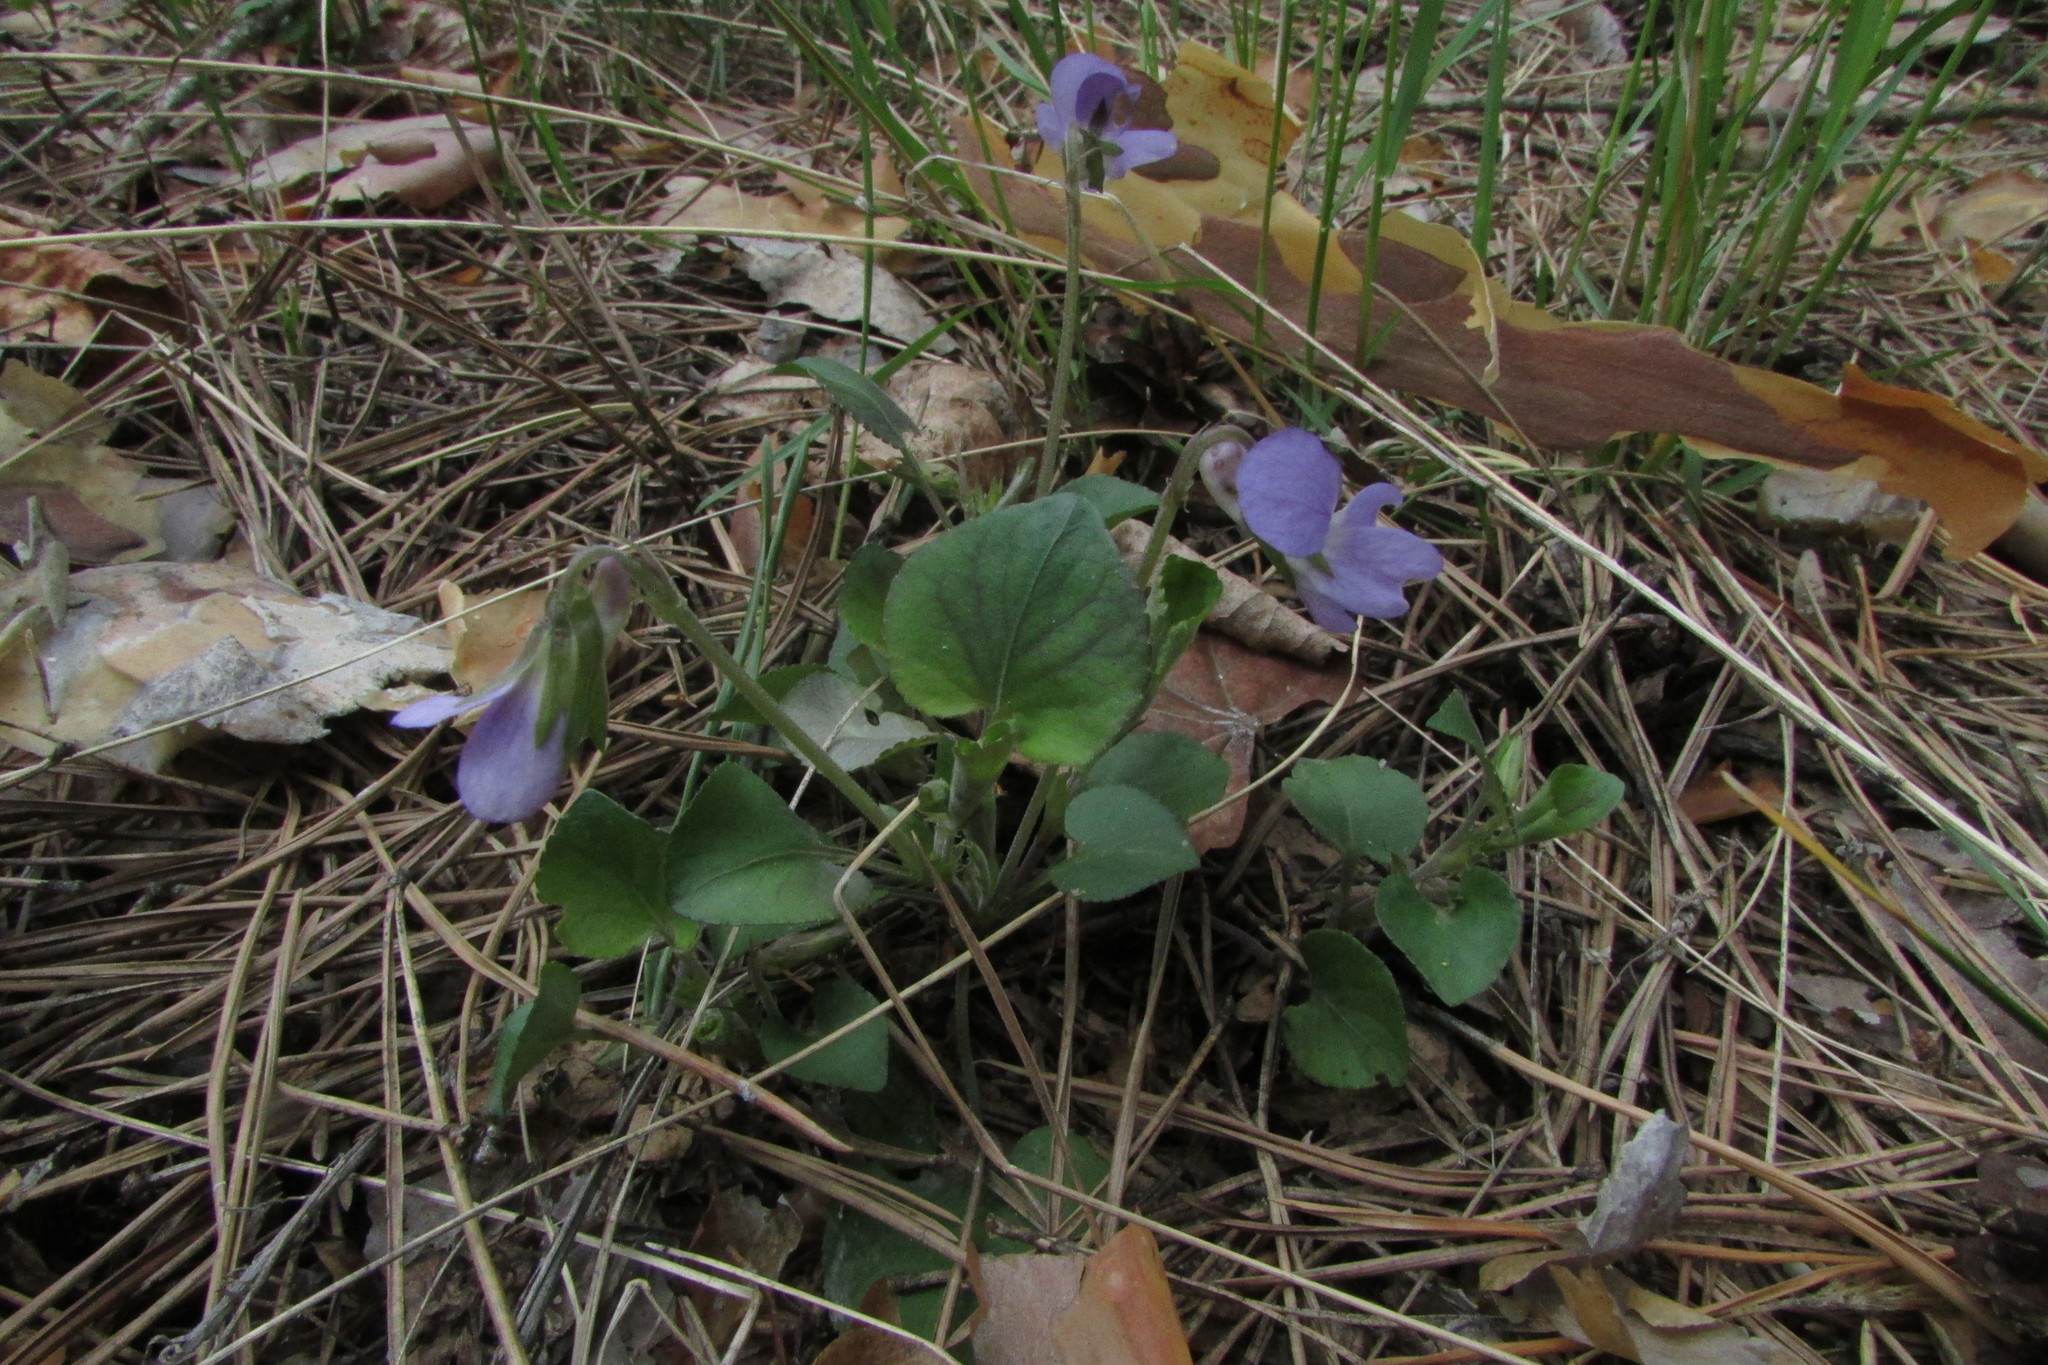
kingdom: Plantae
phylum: Tracheophyta
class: Magnoliopsida
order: Malpighiales
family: Violaceae
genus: Viola
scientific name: Viola rupestris
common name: Teesdale violet
